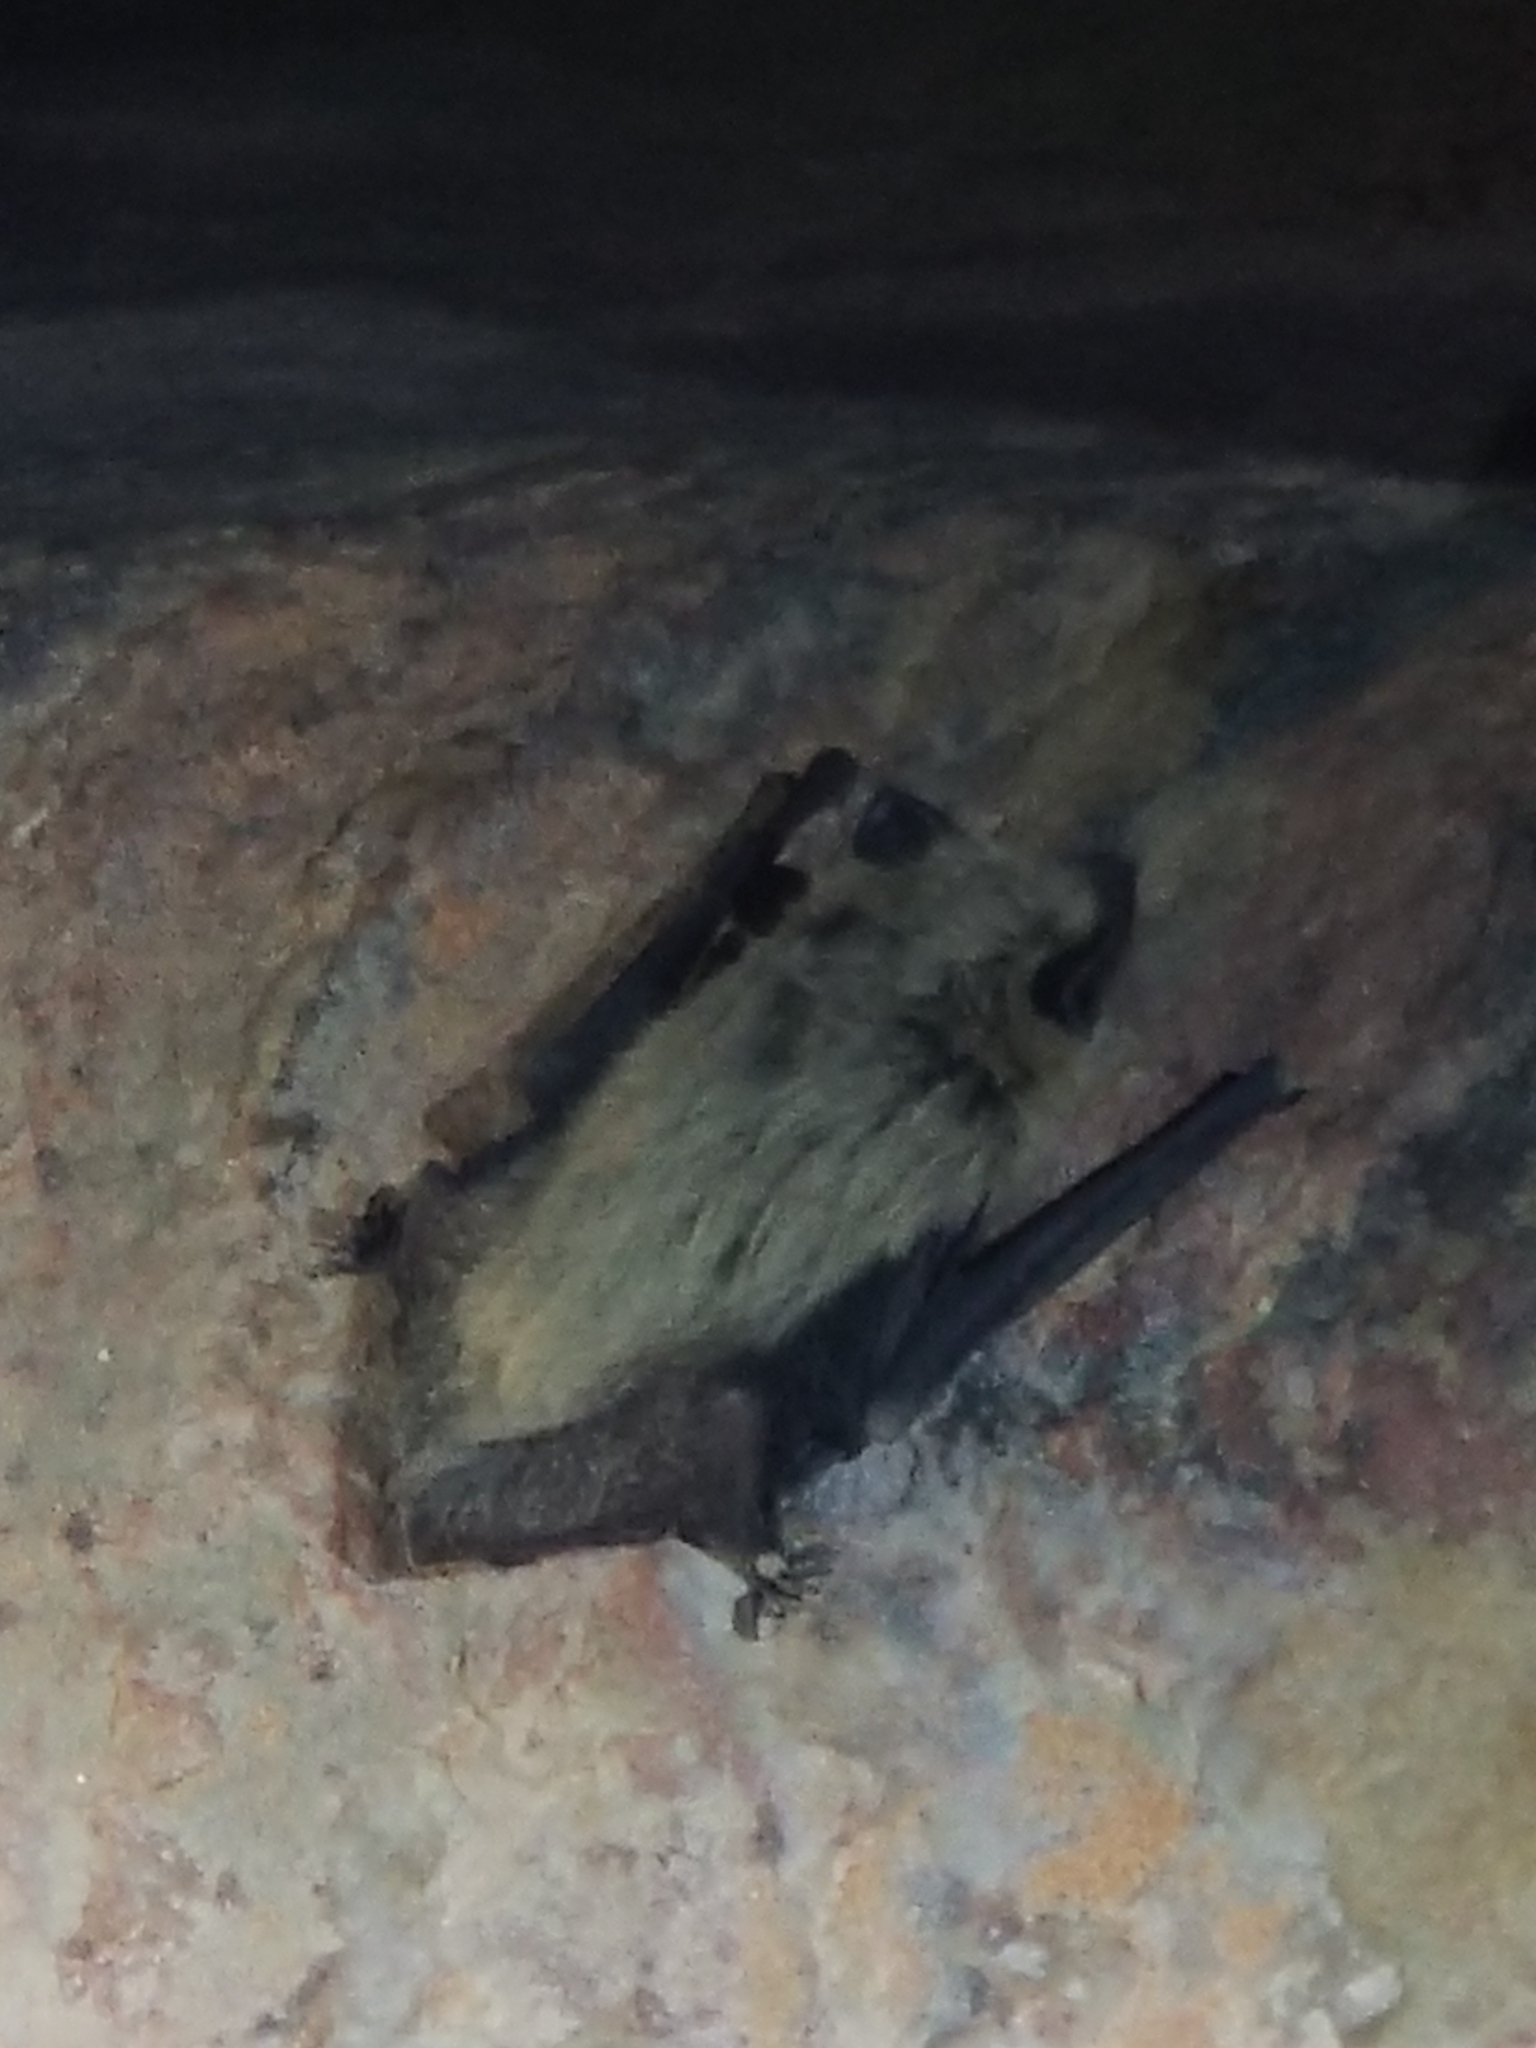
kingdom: Animalia
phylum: Chordata
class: Mammalia
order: Chiroptera
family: Vespertilionidae
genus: Parastrellus
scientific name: Parastrellus hesperus
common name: Canyon bat
